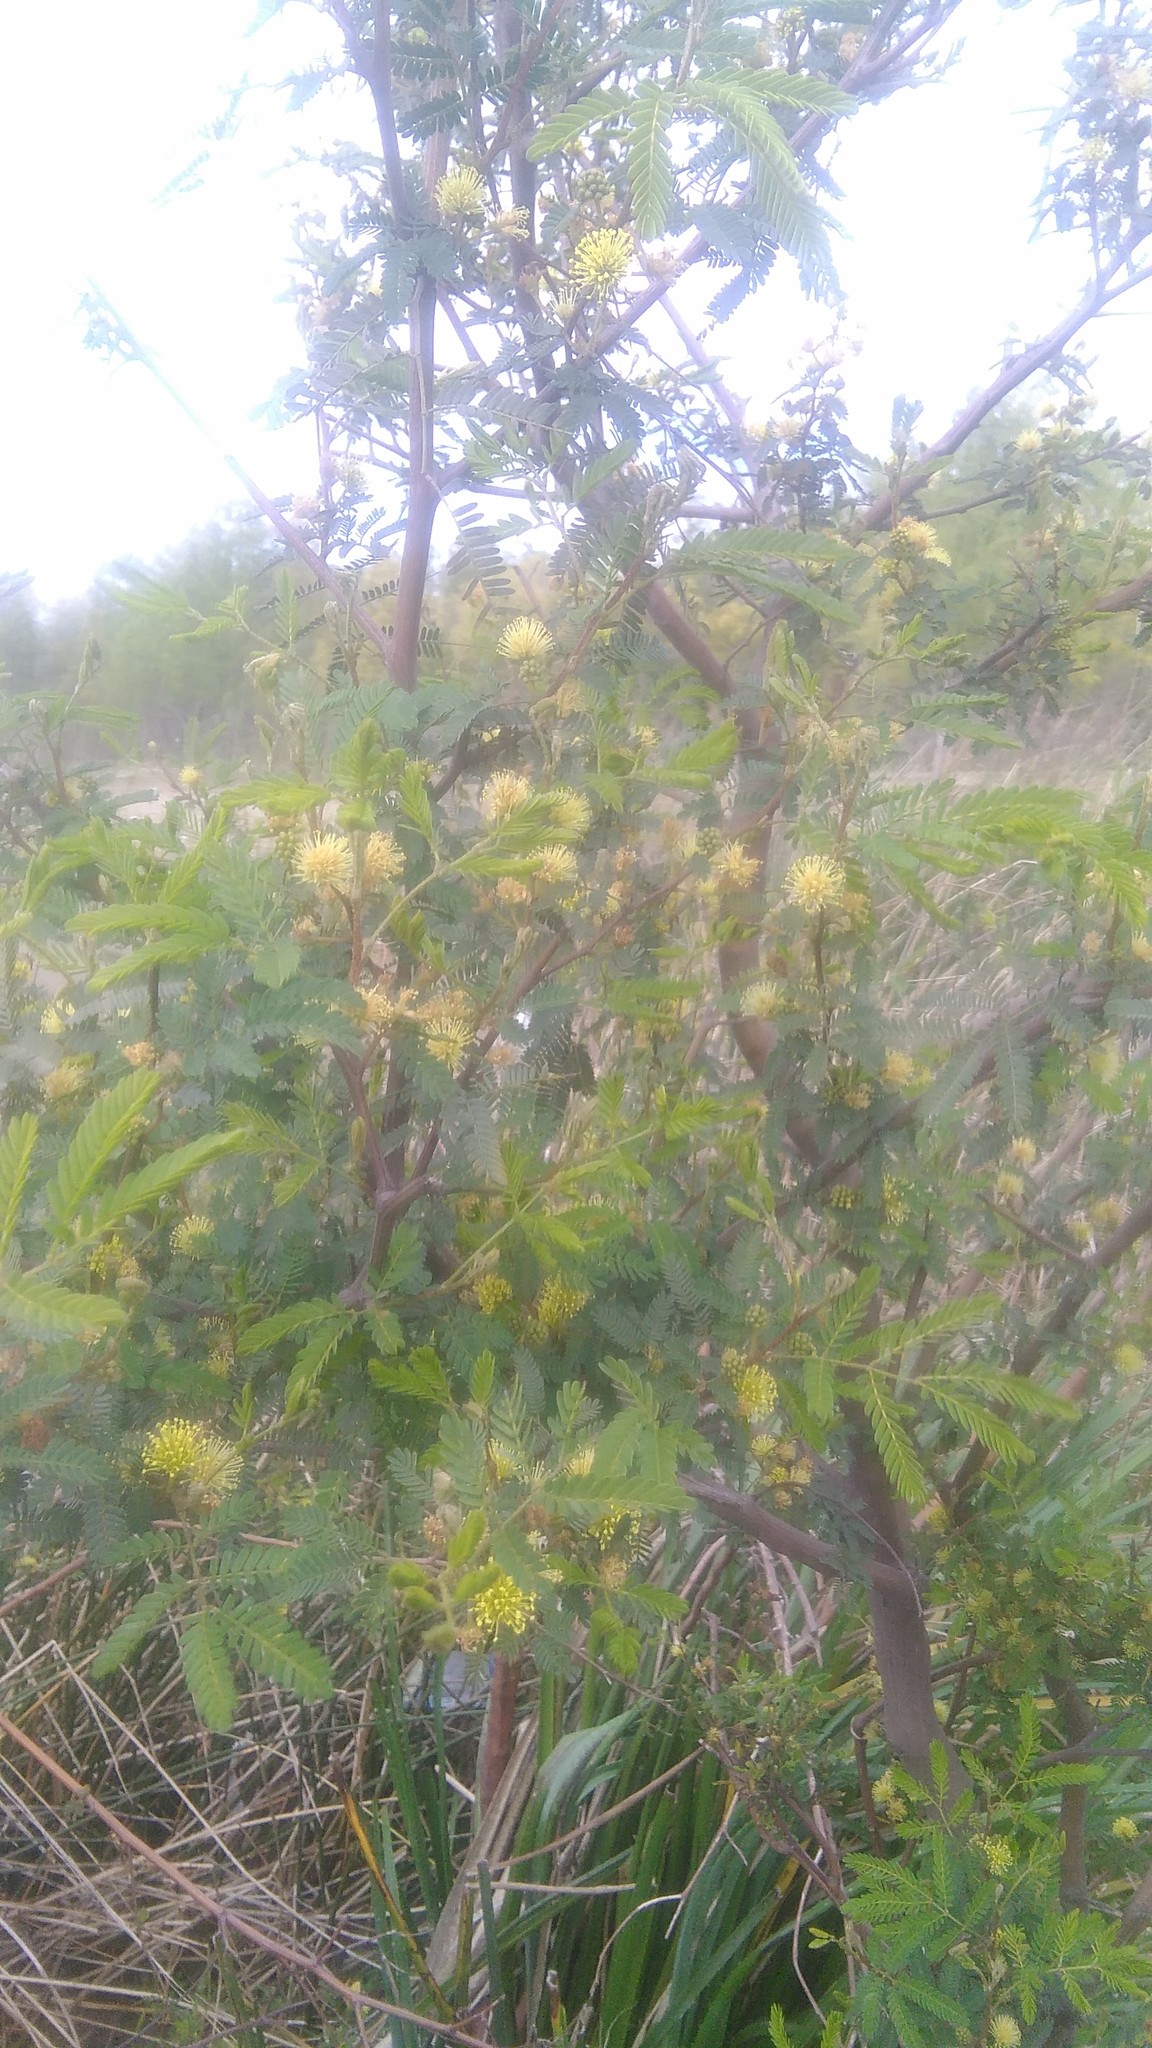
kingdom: Plantae
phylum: Tracheophyta
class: Magnoliopsida
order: Fabales
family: Fabaceae
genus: Mimosa
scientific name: Mimosa bonplandii
